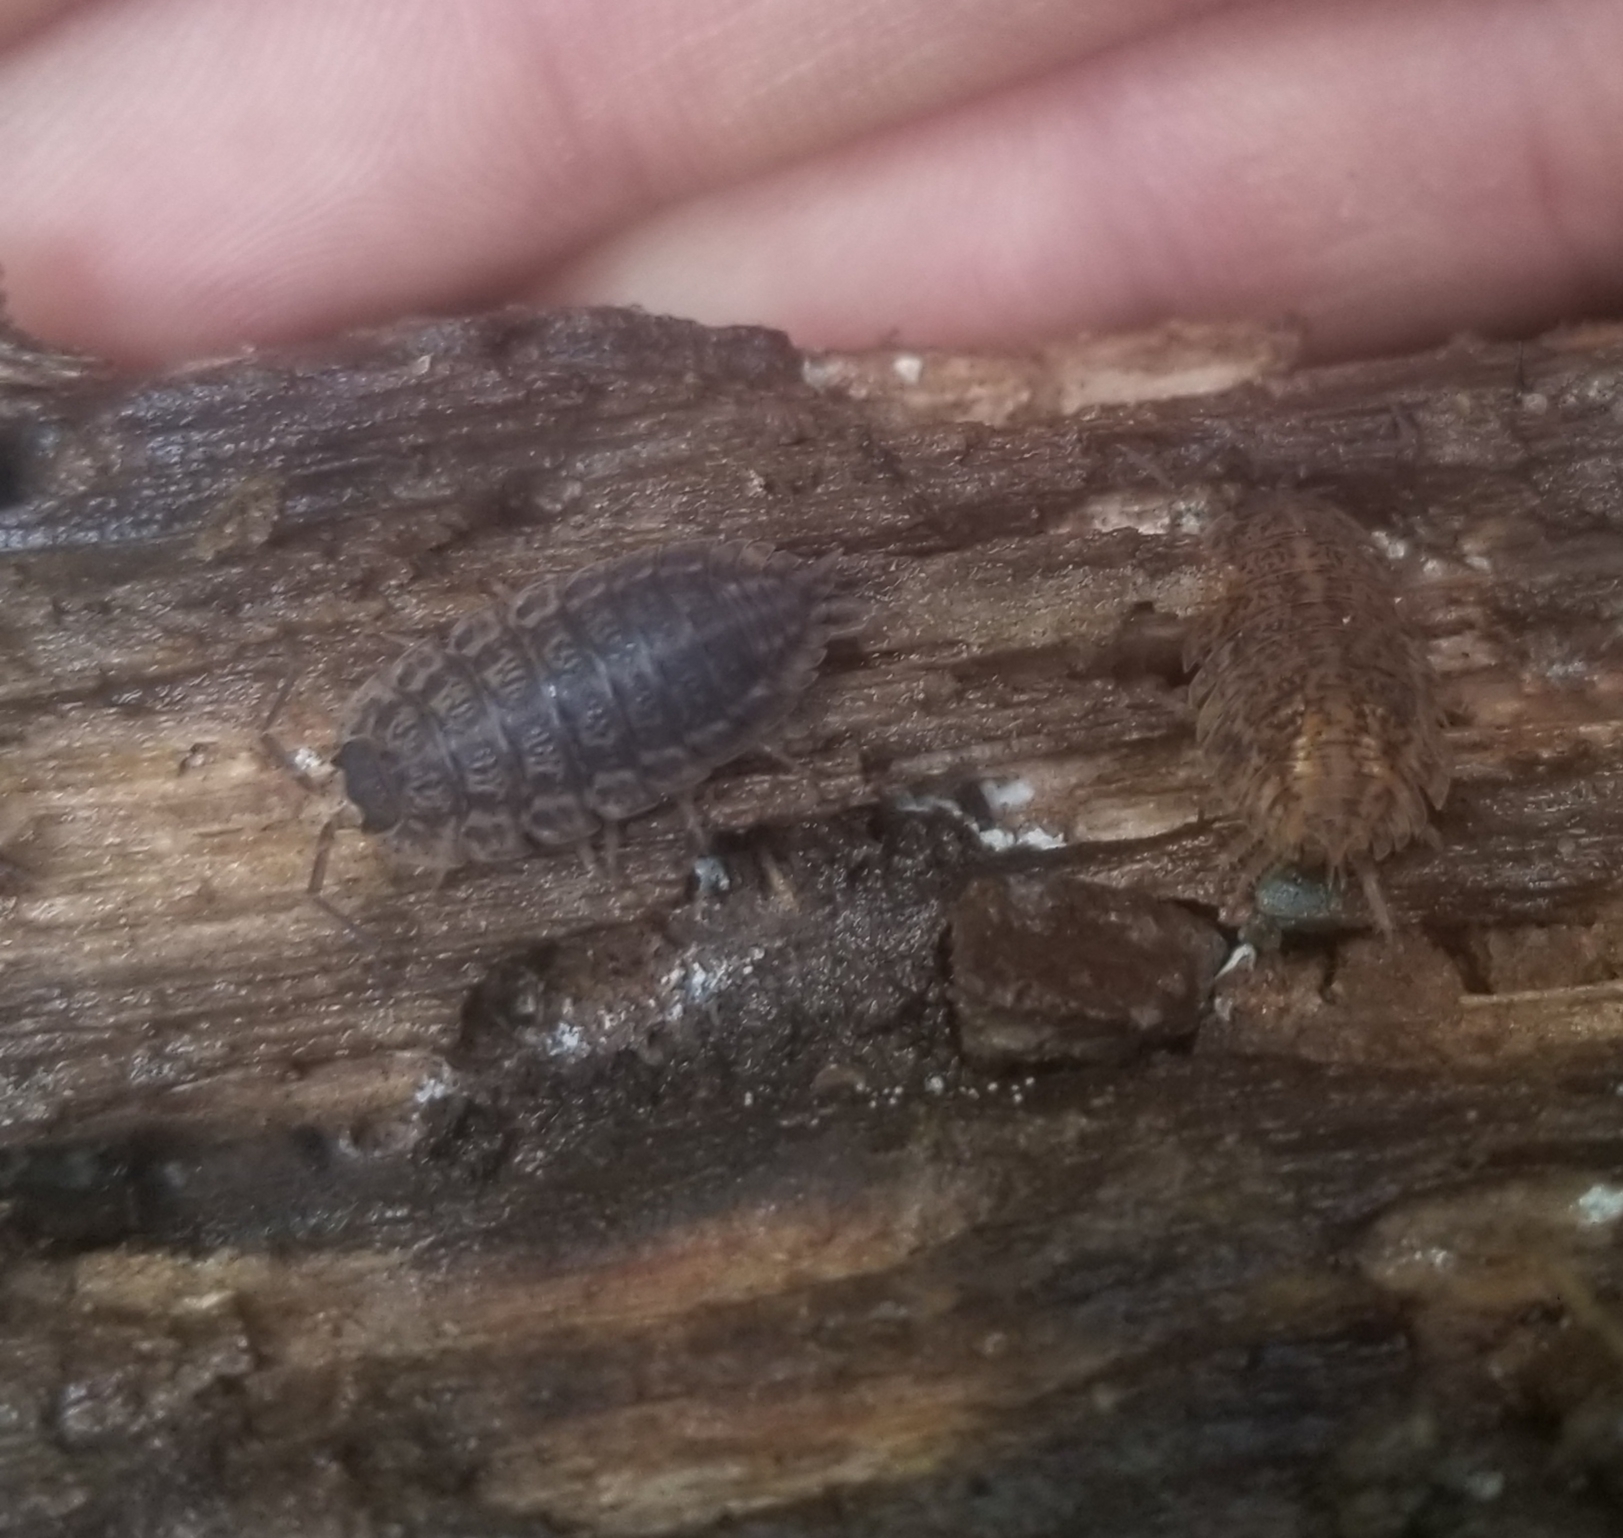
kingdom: Animalia
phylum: Arthropoda
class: Malacostraca
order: Isopoda
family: Trachelipodidae
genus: Trachelipus
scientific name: Trachelipus rathkii
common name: Isopod
